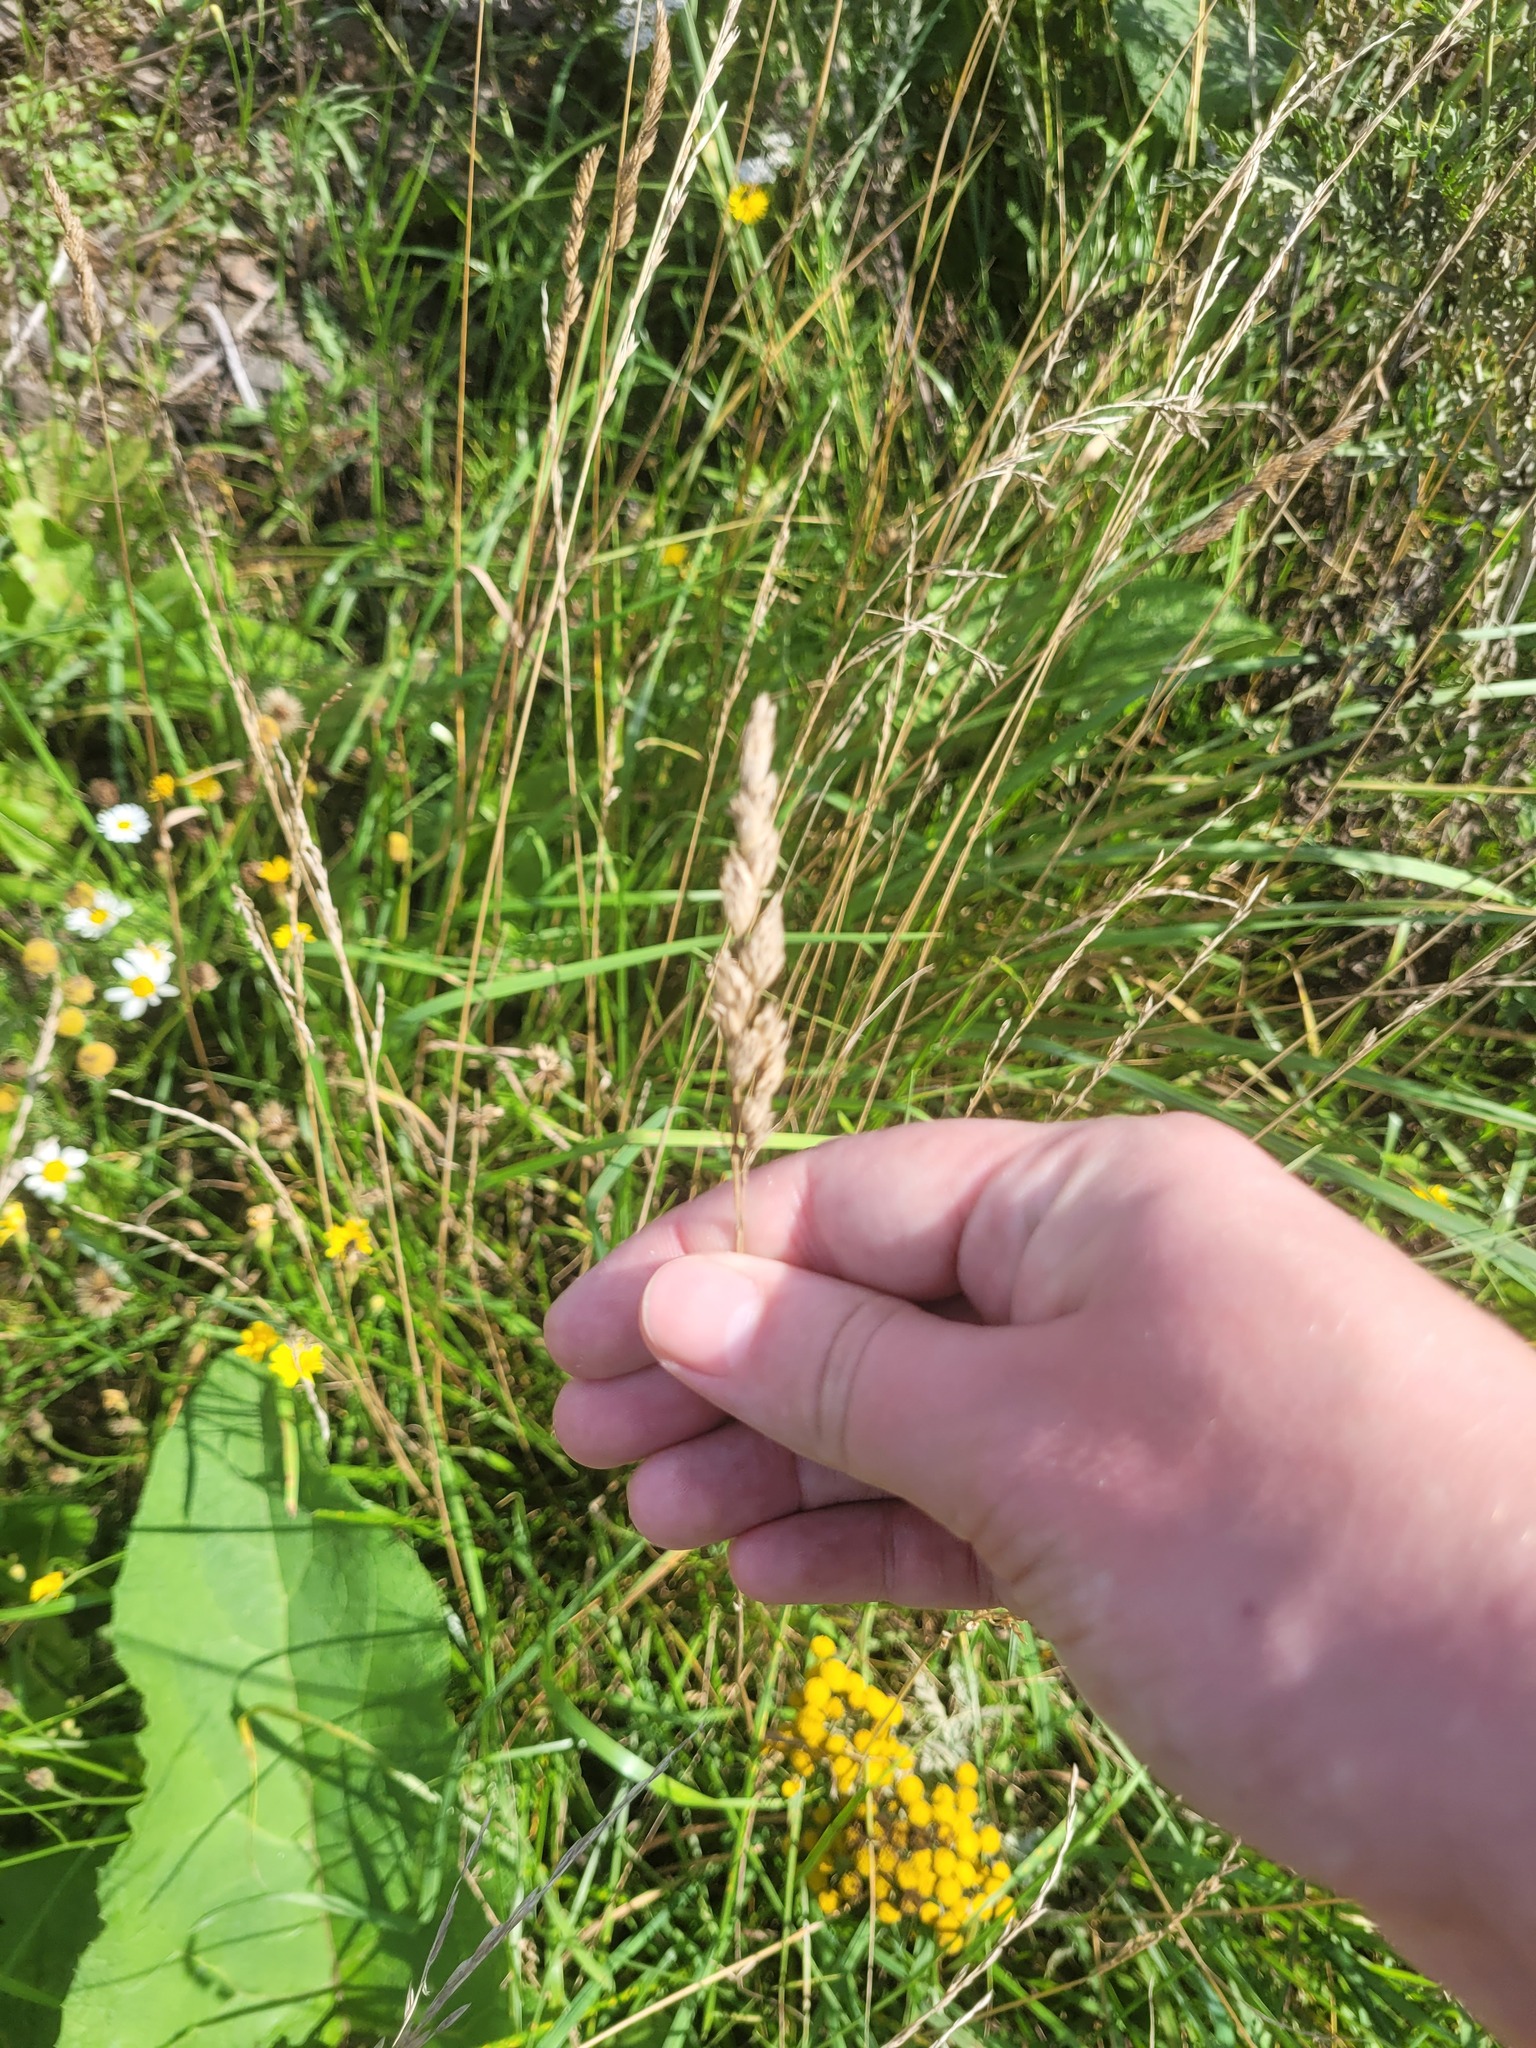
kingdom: Plantae
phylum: Tracheophyta
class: Liliopsida
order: Poales
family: Poaceae
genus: Dactylis
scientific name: Dactylis glomerata
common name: Orchardgrass
